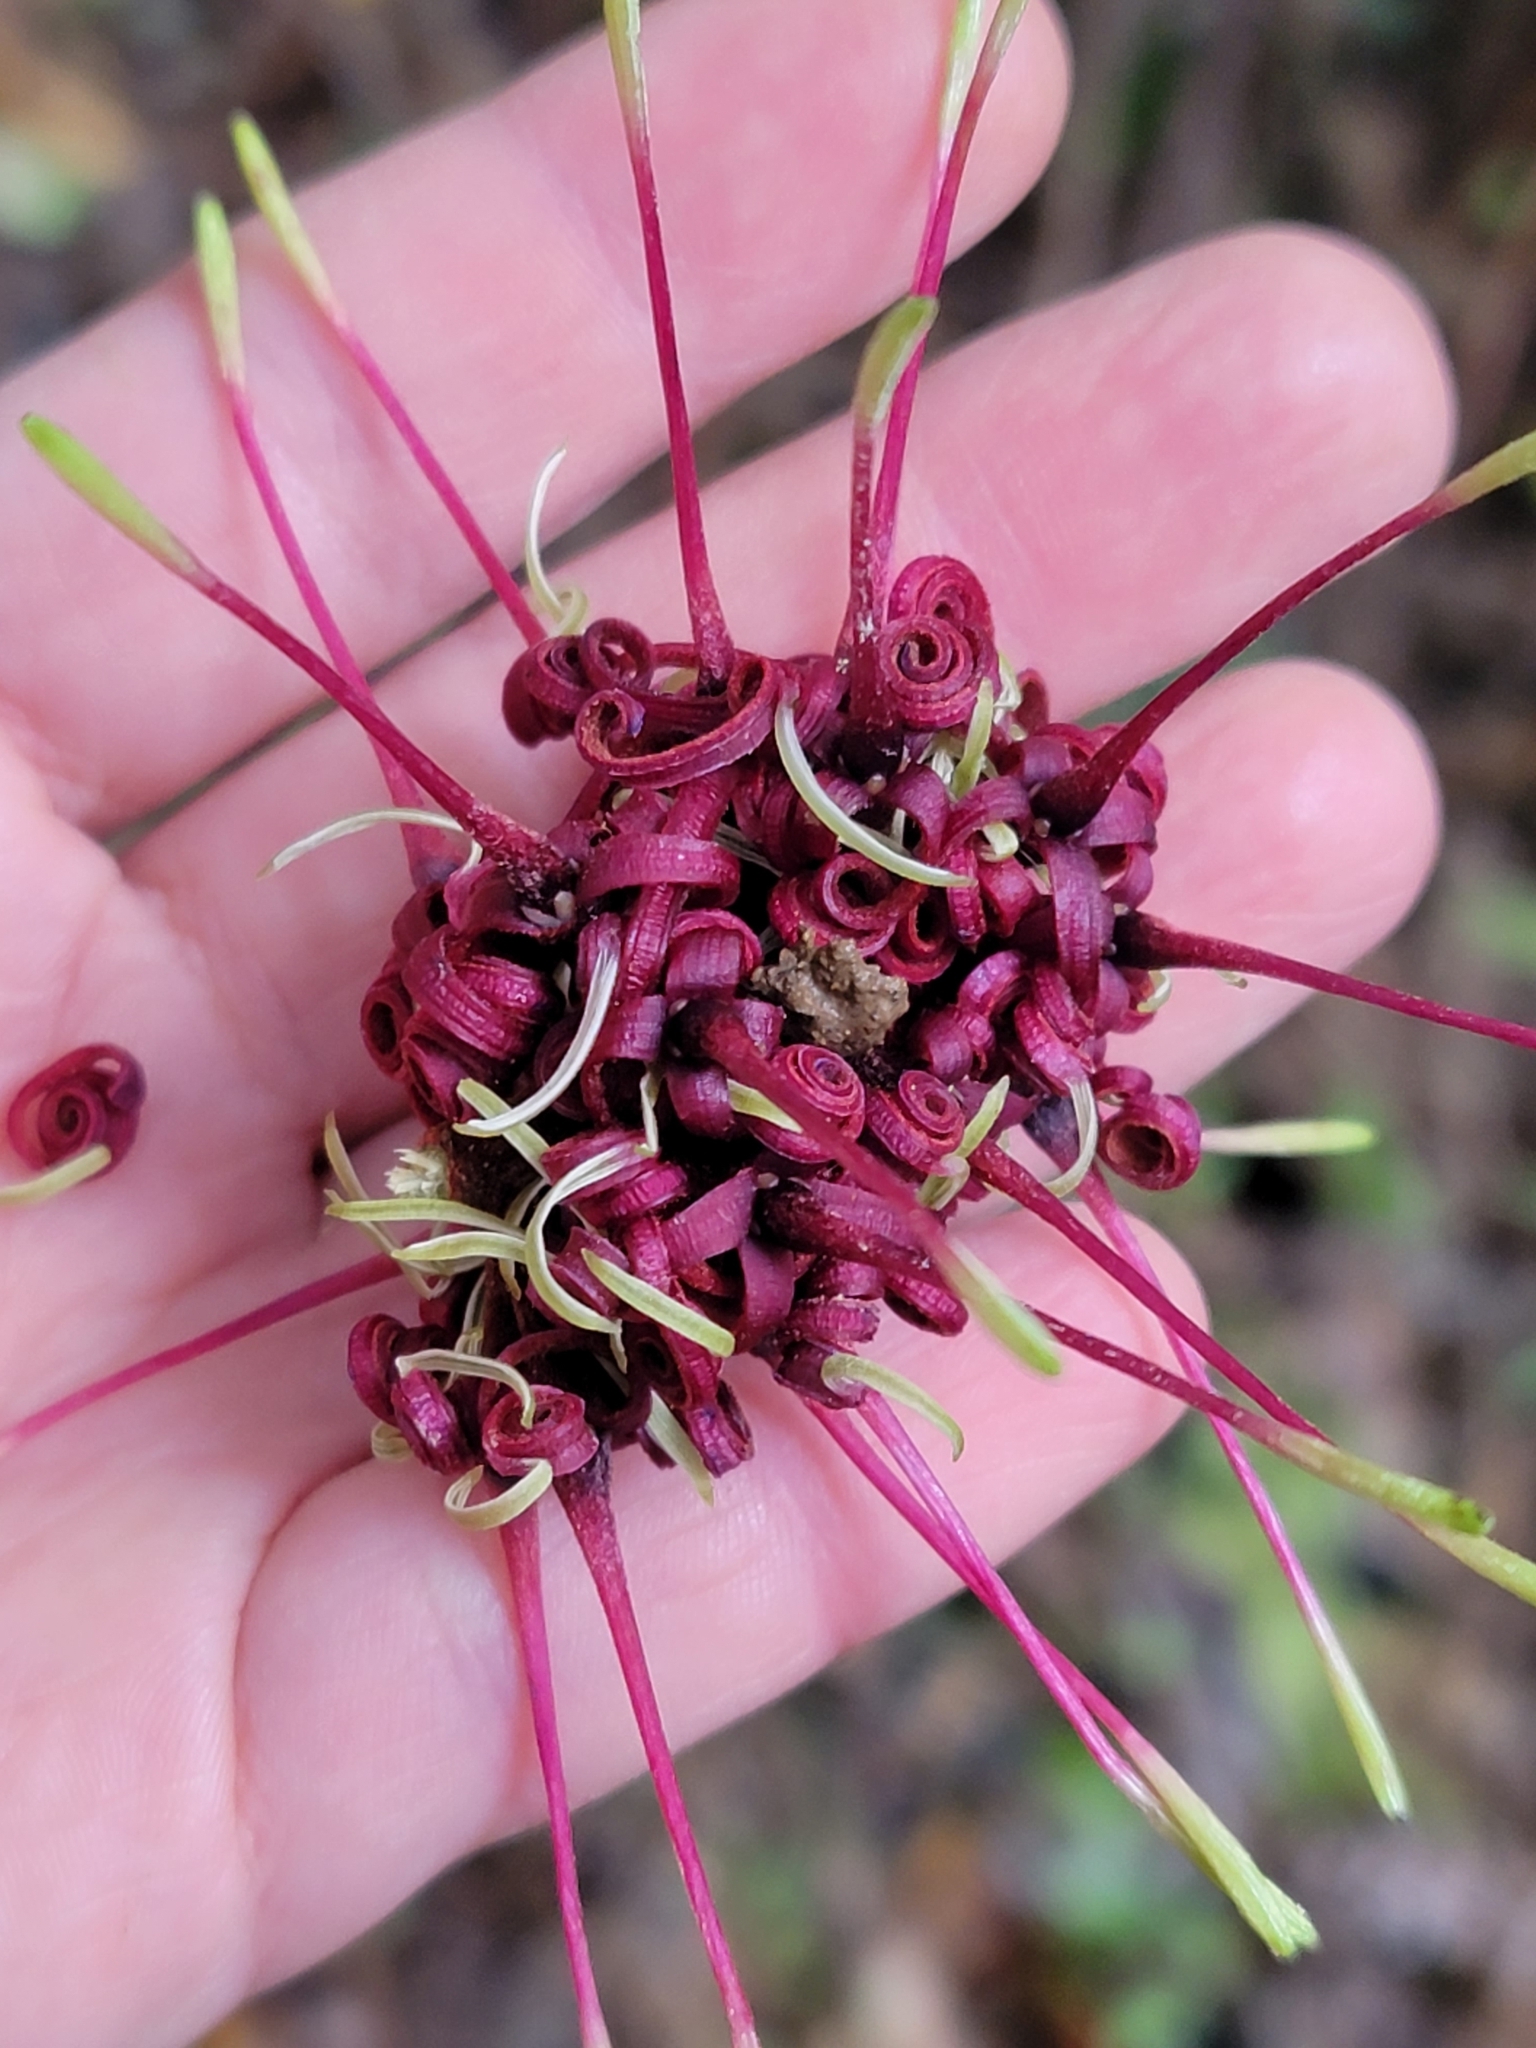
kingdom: Plantae
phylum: Tracheophyta
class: Magnoliopsida
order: Proteales
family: Proteaceae
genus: Knightia
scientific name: Knightia excelsa
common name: New zealand-honeysuckle
